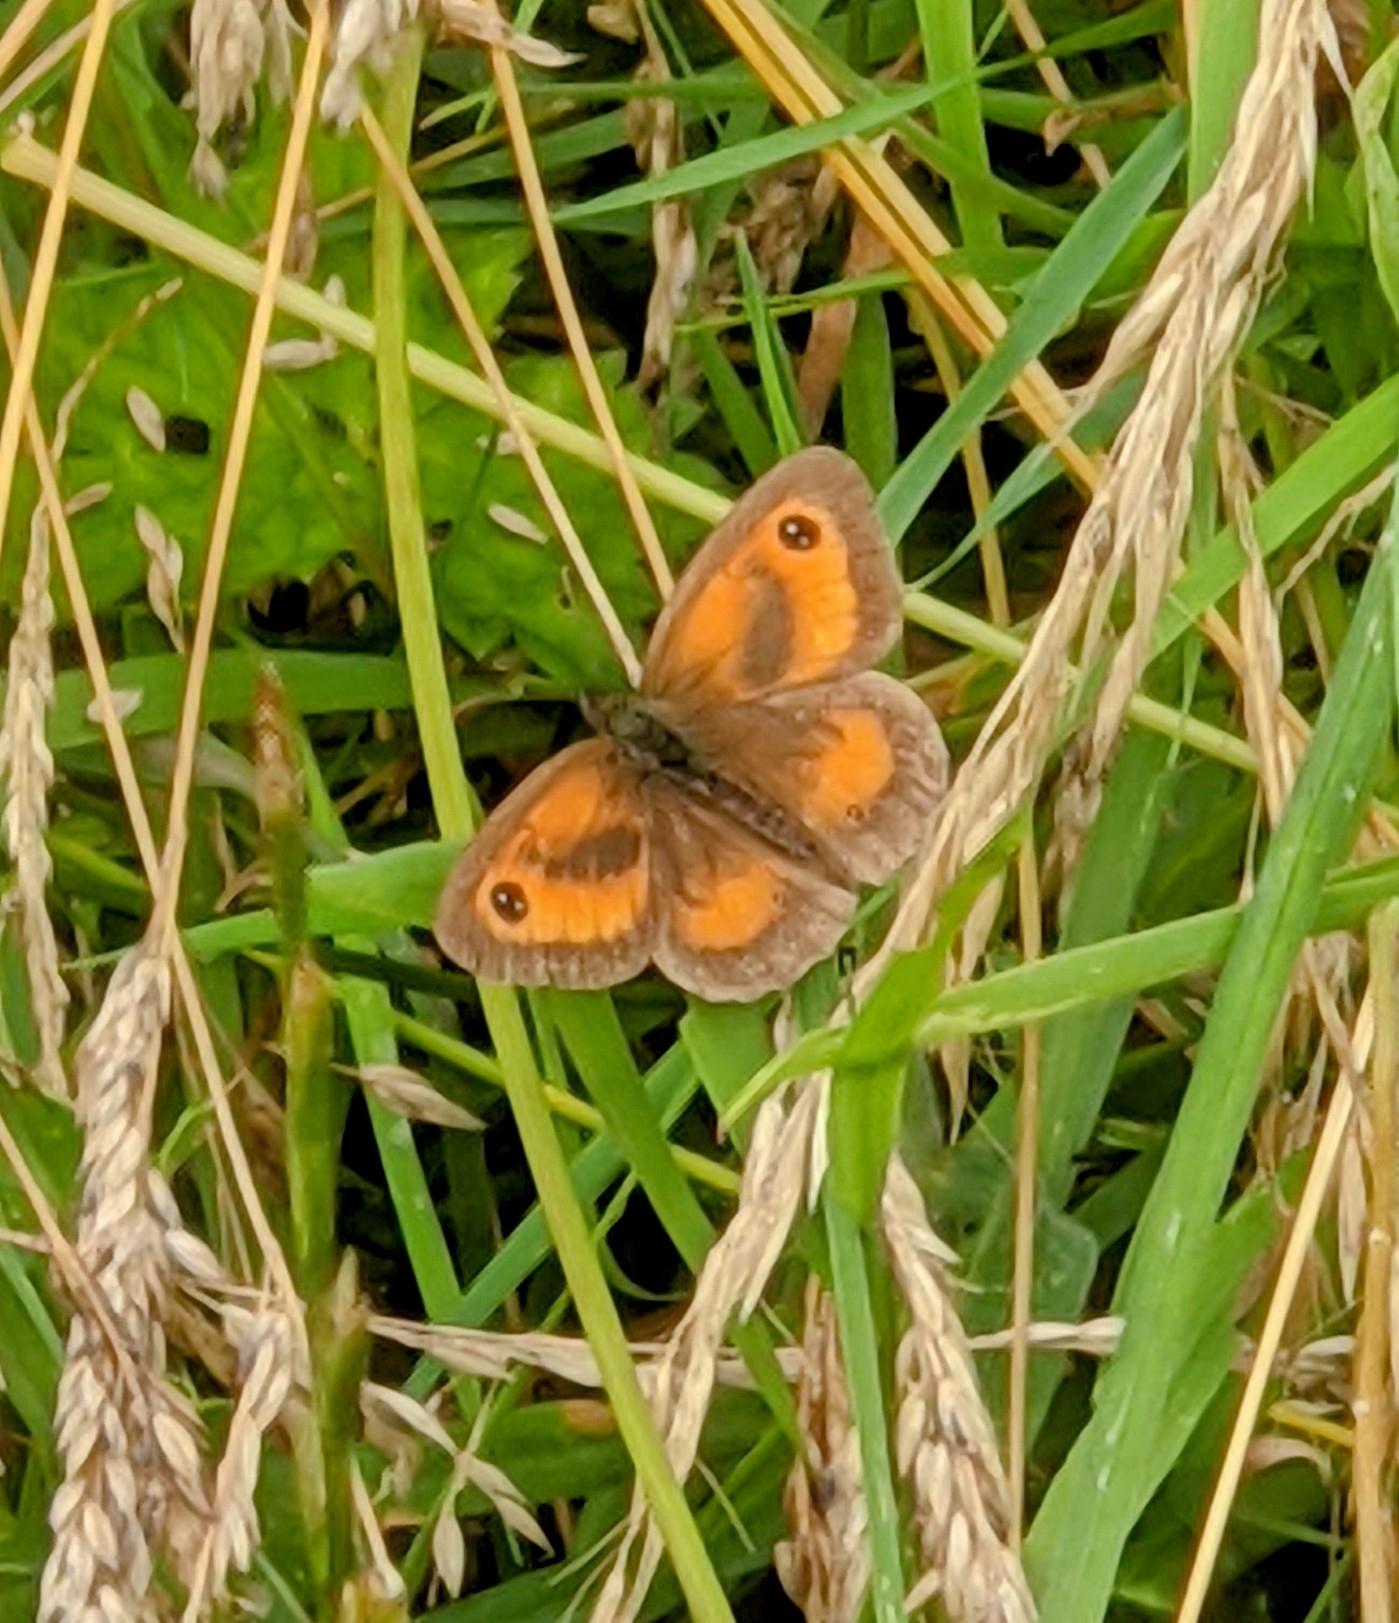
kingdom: Animalia
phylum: Arthropoda
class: Insecta
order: Lepidoptera
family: Nymphalidae
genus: Pyronia
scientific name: Pyronia tithonus
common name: Gatekeeper
